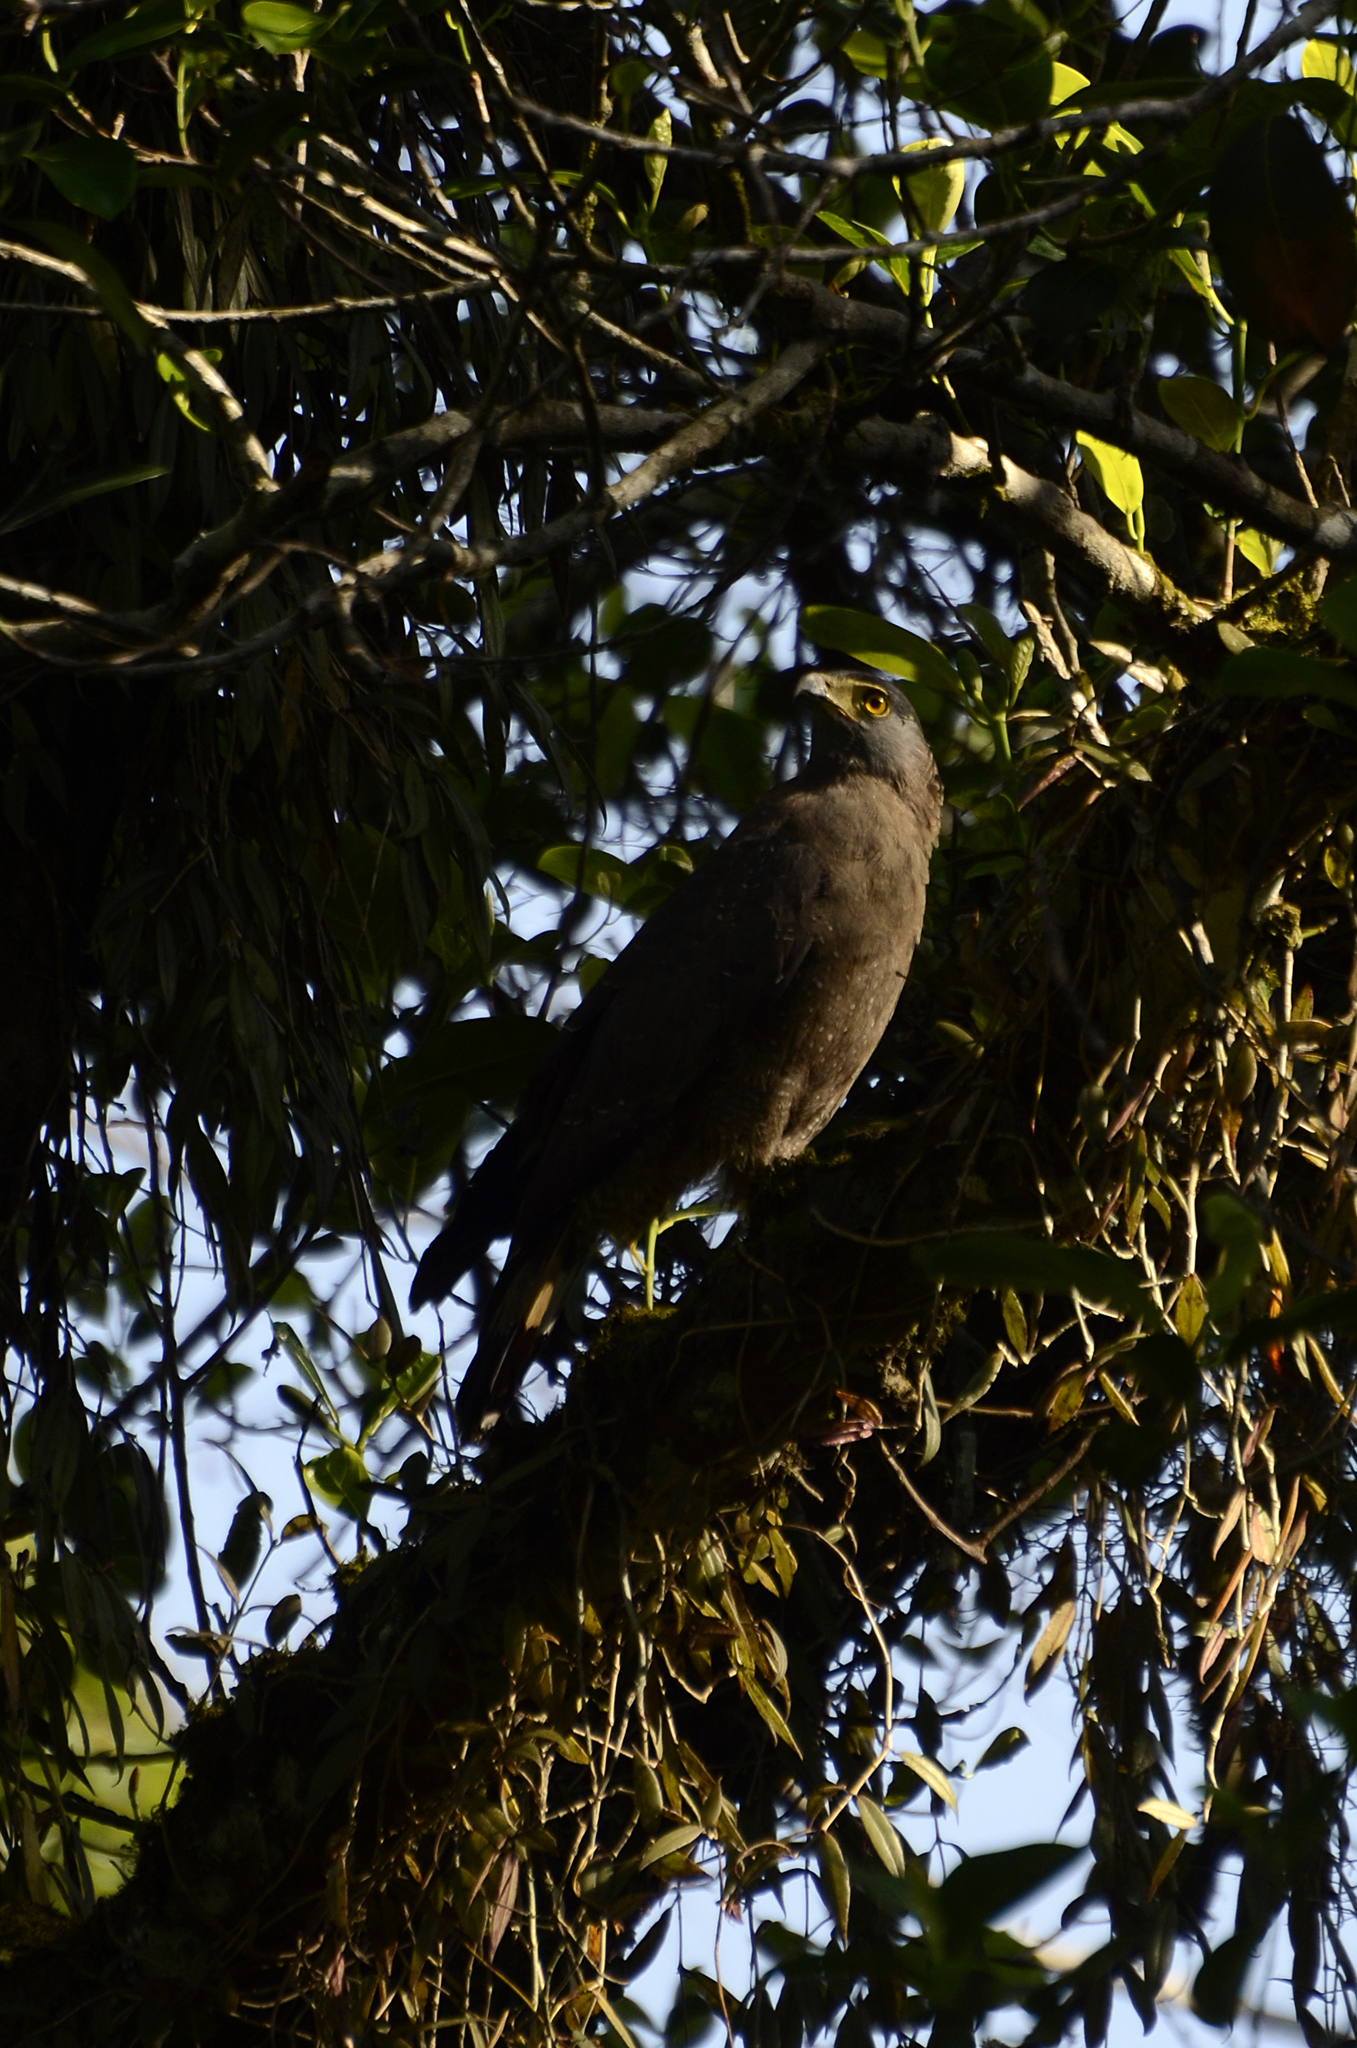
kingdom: Animalia
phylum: Chordata
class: Aves
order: Accipitriformes
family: Accipitridae
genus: Spilornis
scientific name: Spilornis cheela
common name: Crested serpent eagle
